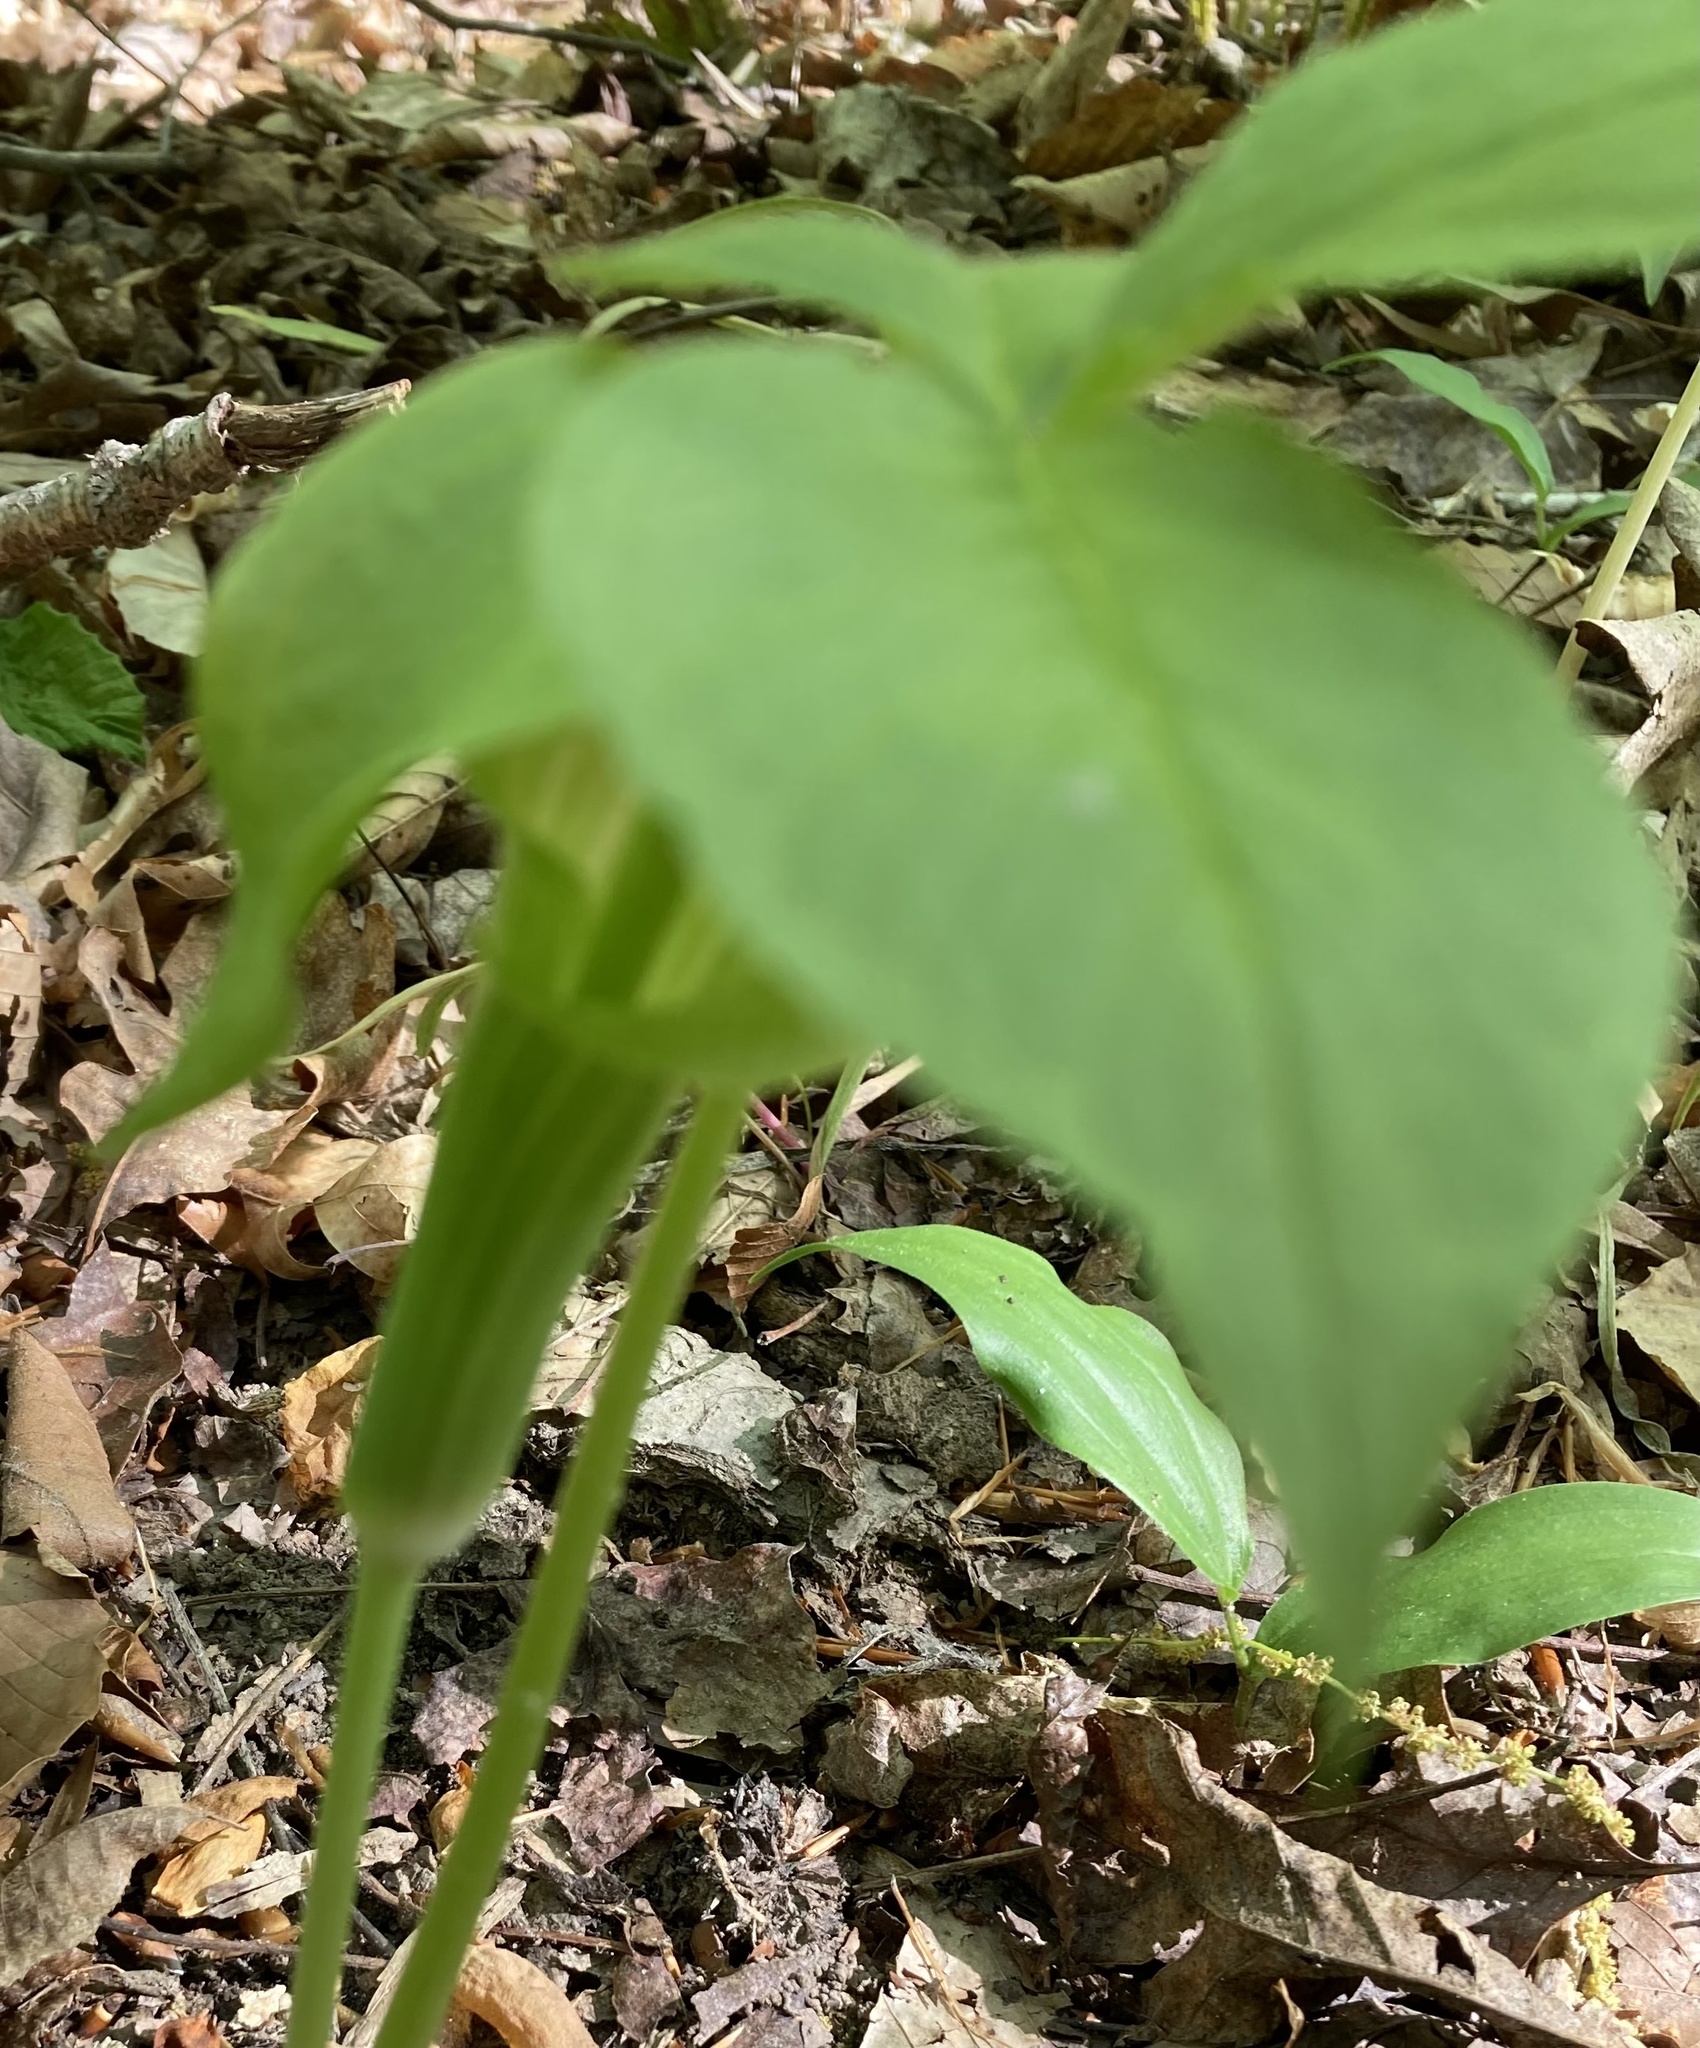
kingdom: Plantae
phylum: Tracheophyta
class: Liliopsida
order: Alismatales
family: Araceae
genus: Arisaema
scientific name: Arisaema triphyllum
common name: Jack-in-the-pulpit
